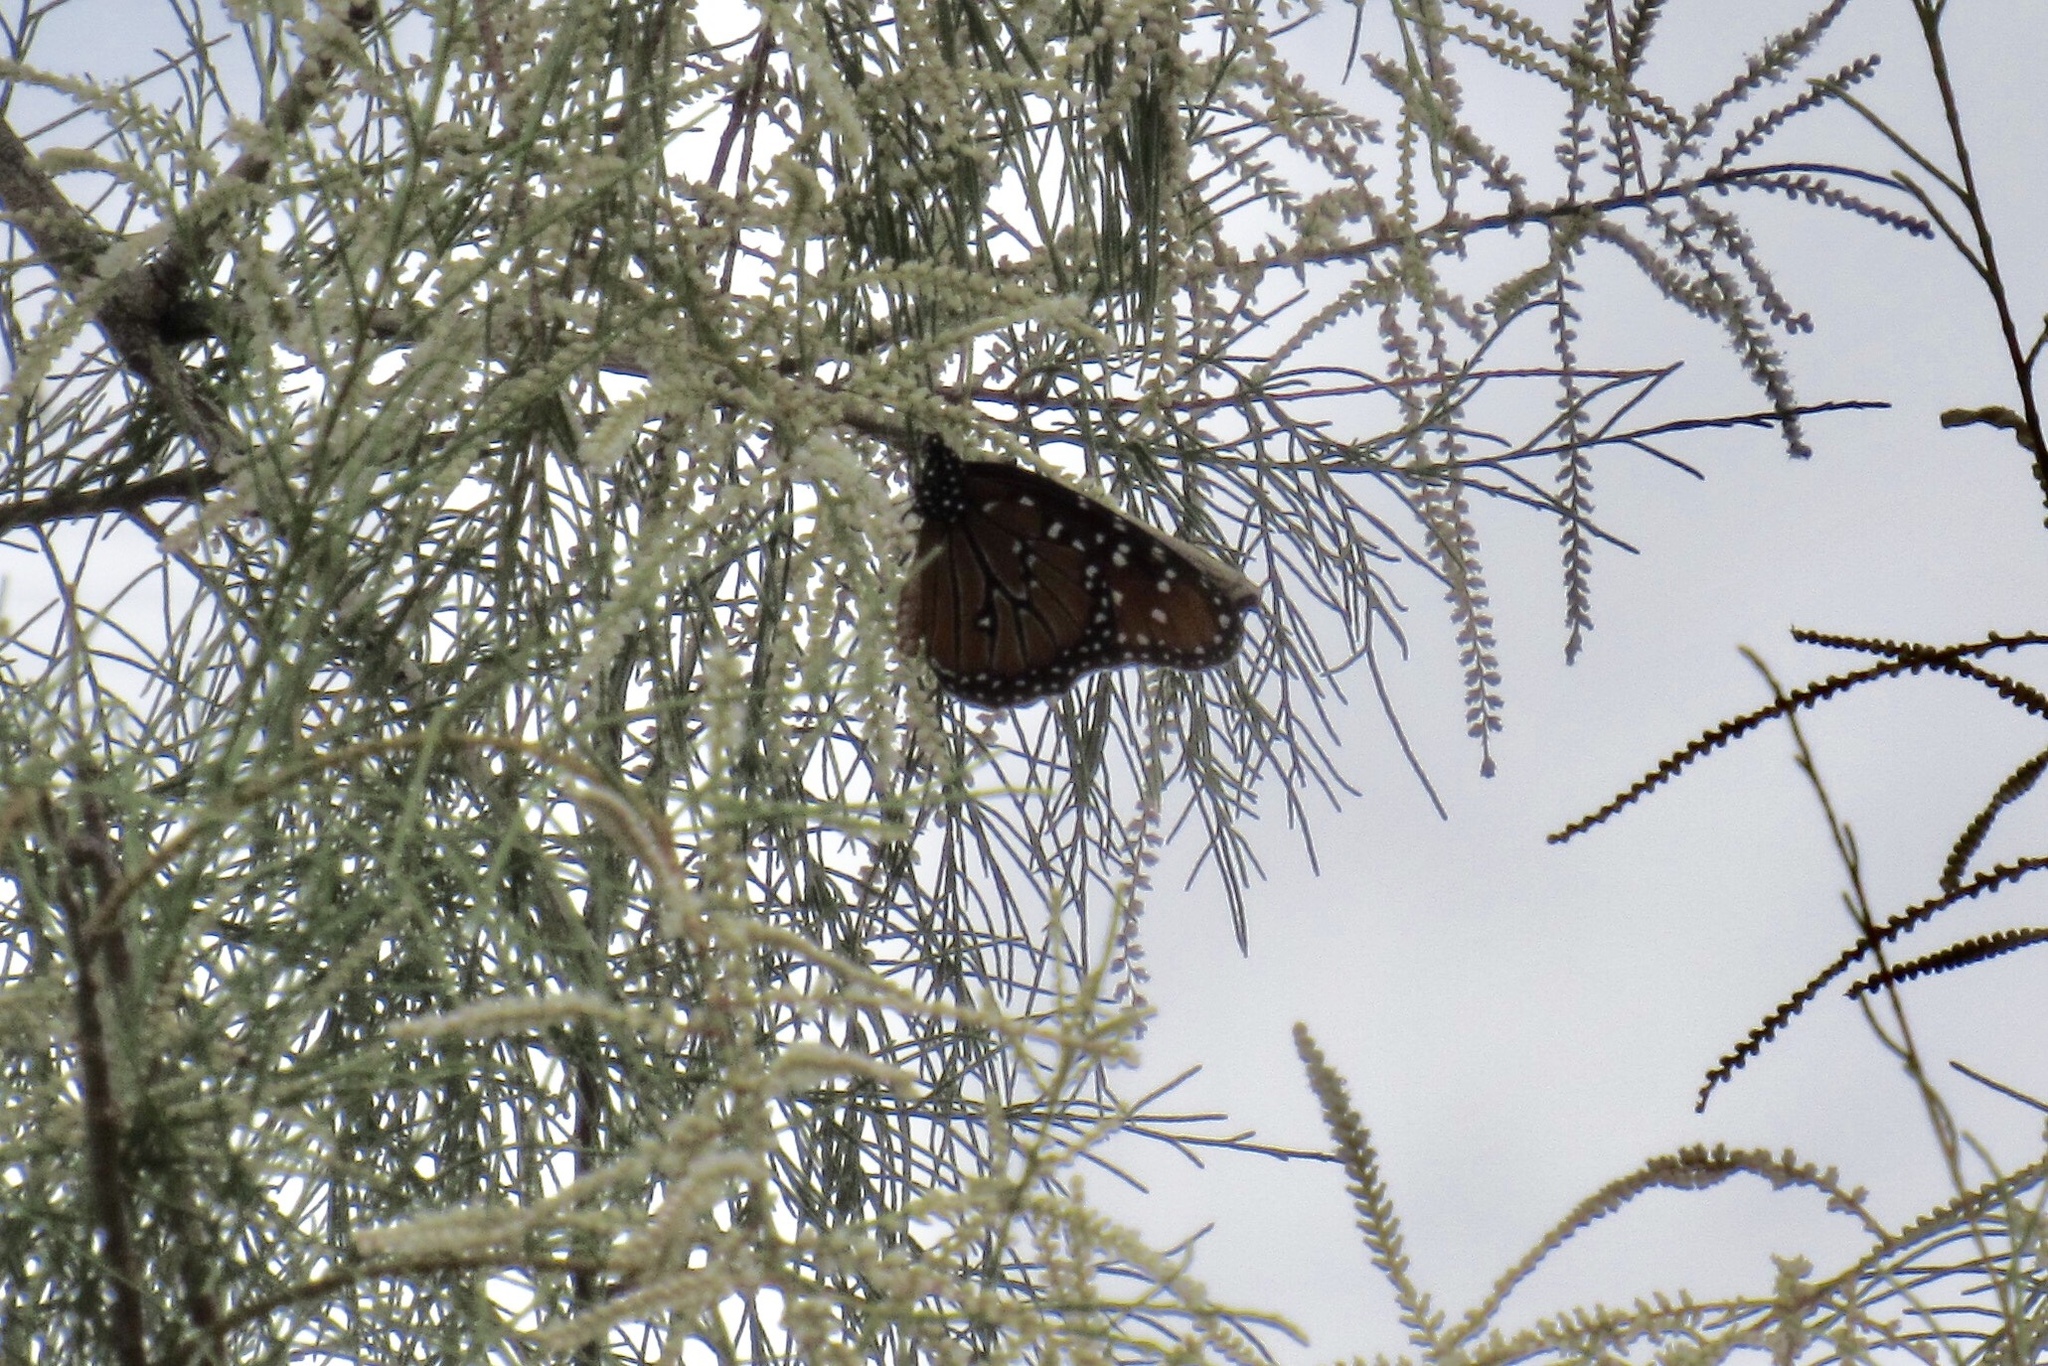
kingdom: Animalia
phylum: Arthropoda
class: Insecta
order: Lepidoptera
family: Nymphalidae
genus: Danaus
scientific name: Danaus gilippus
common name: Queen
